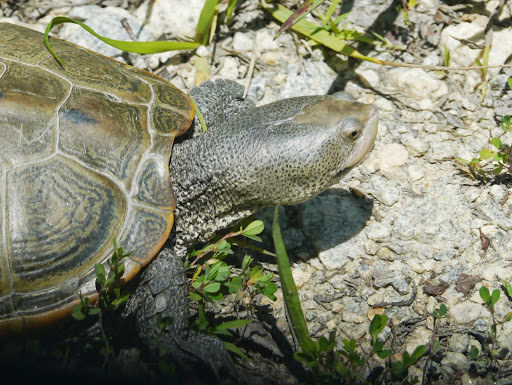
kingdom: Animalia
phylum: Chordata
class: Testudines
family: Emydidae
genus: Malaclemys
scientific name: Malaclemys terrapin
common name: Diamondback terrapin
